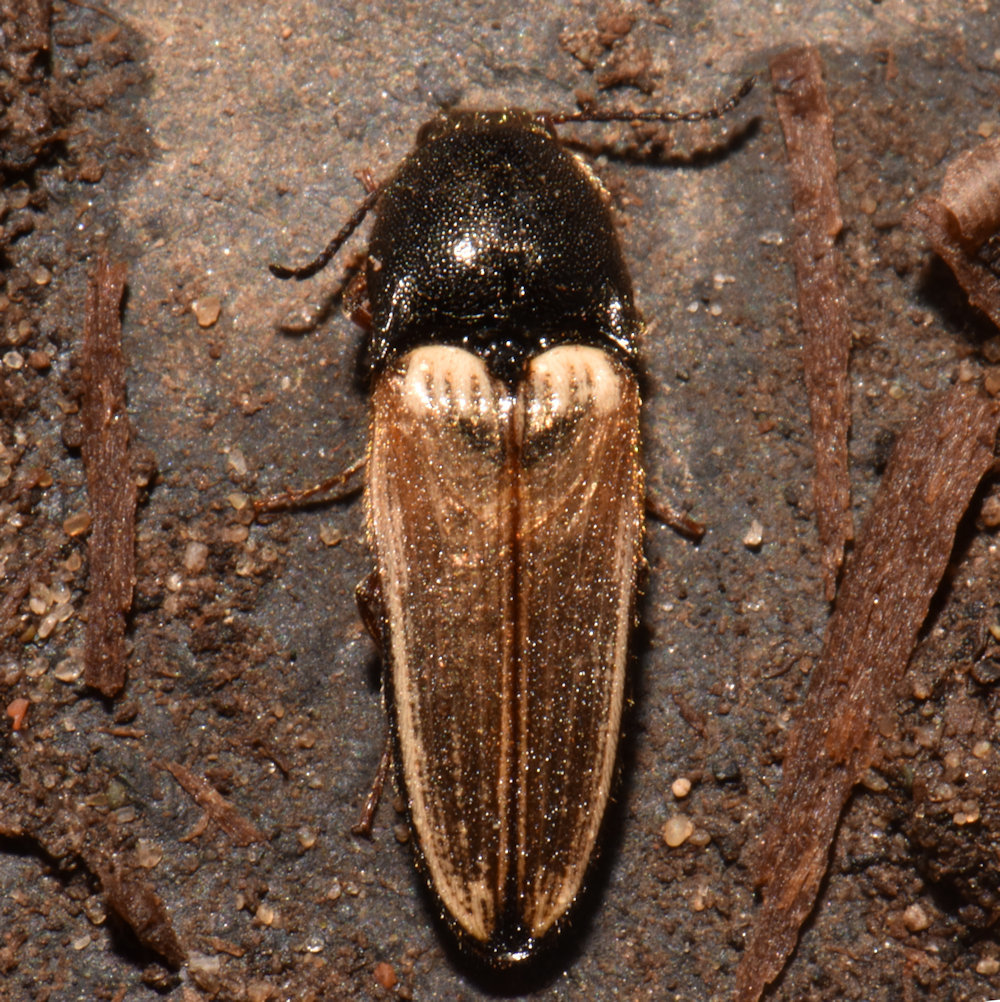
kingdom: Animalia
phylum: Arthropoda
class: Insecta
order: Coleoptera
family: Elateridae
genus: Ampedus
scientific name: Ampedus nigricollis
